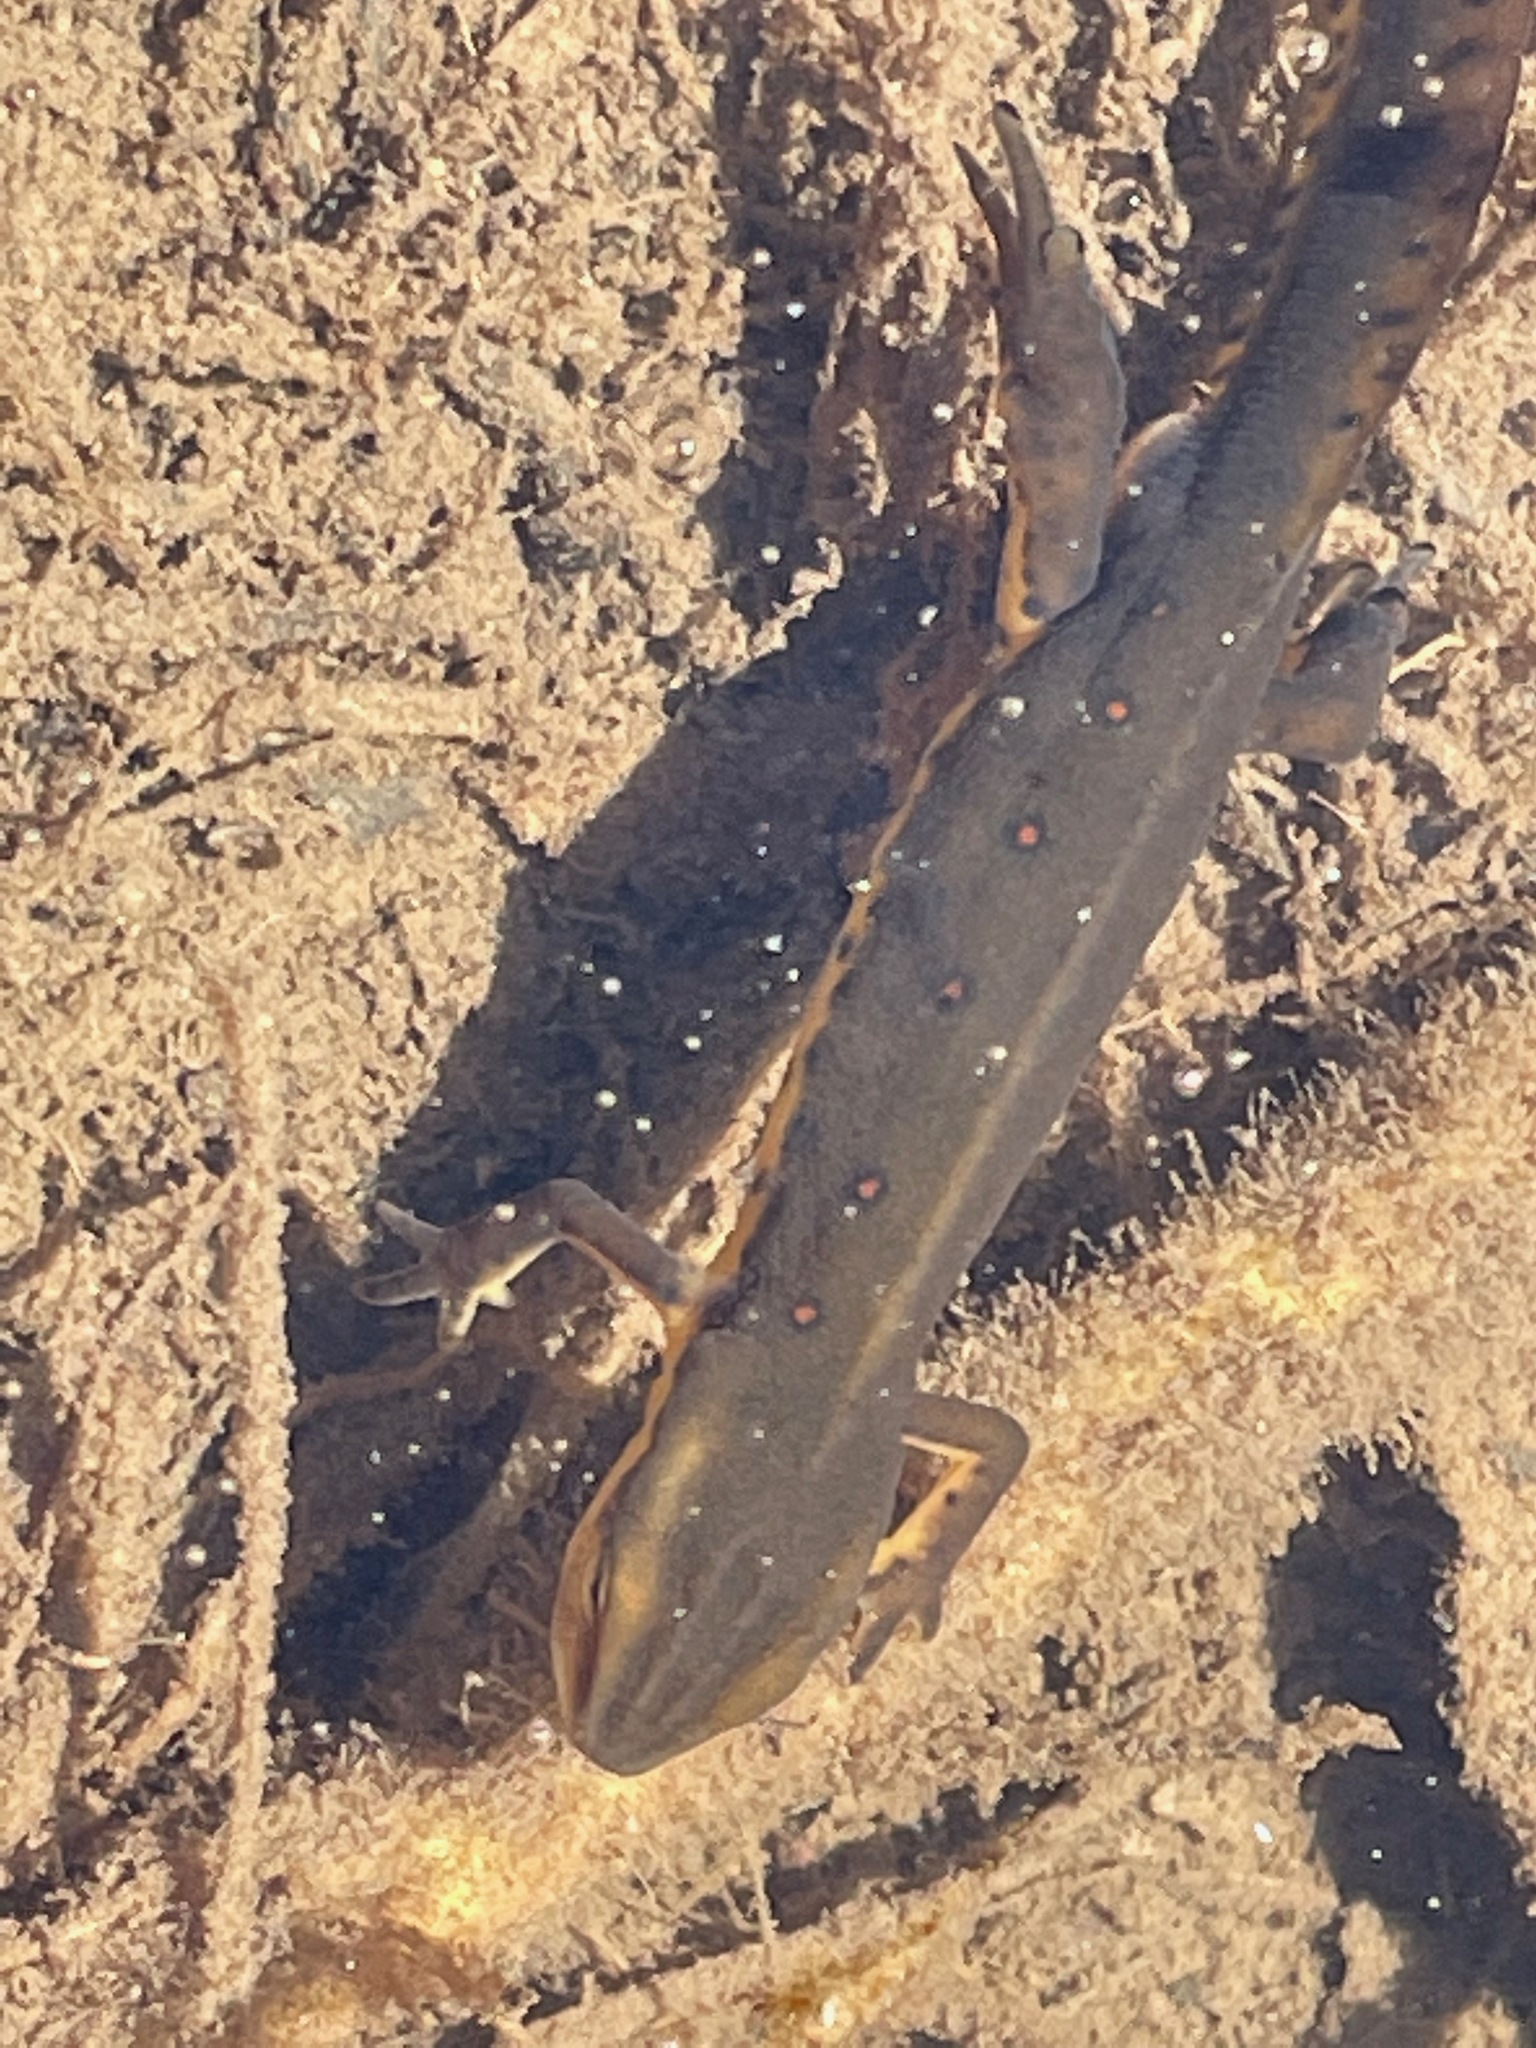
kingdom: Animalia
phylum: Chordata
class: Amphibia
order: Caudata
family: Salamandridae
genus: Notophthalmus
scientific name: Notophthalmus viridescens
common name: Eastern newt
